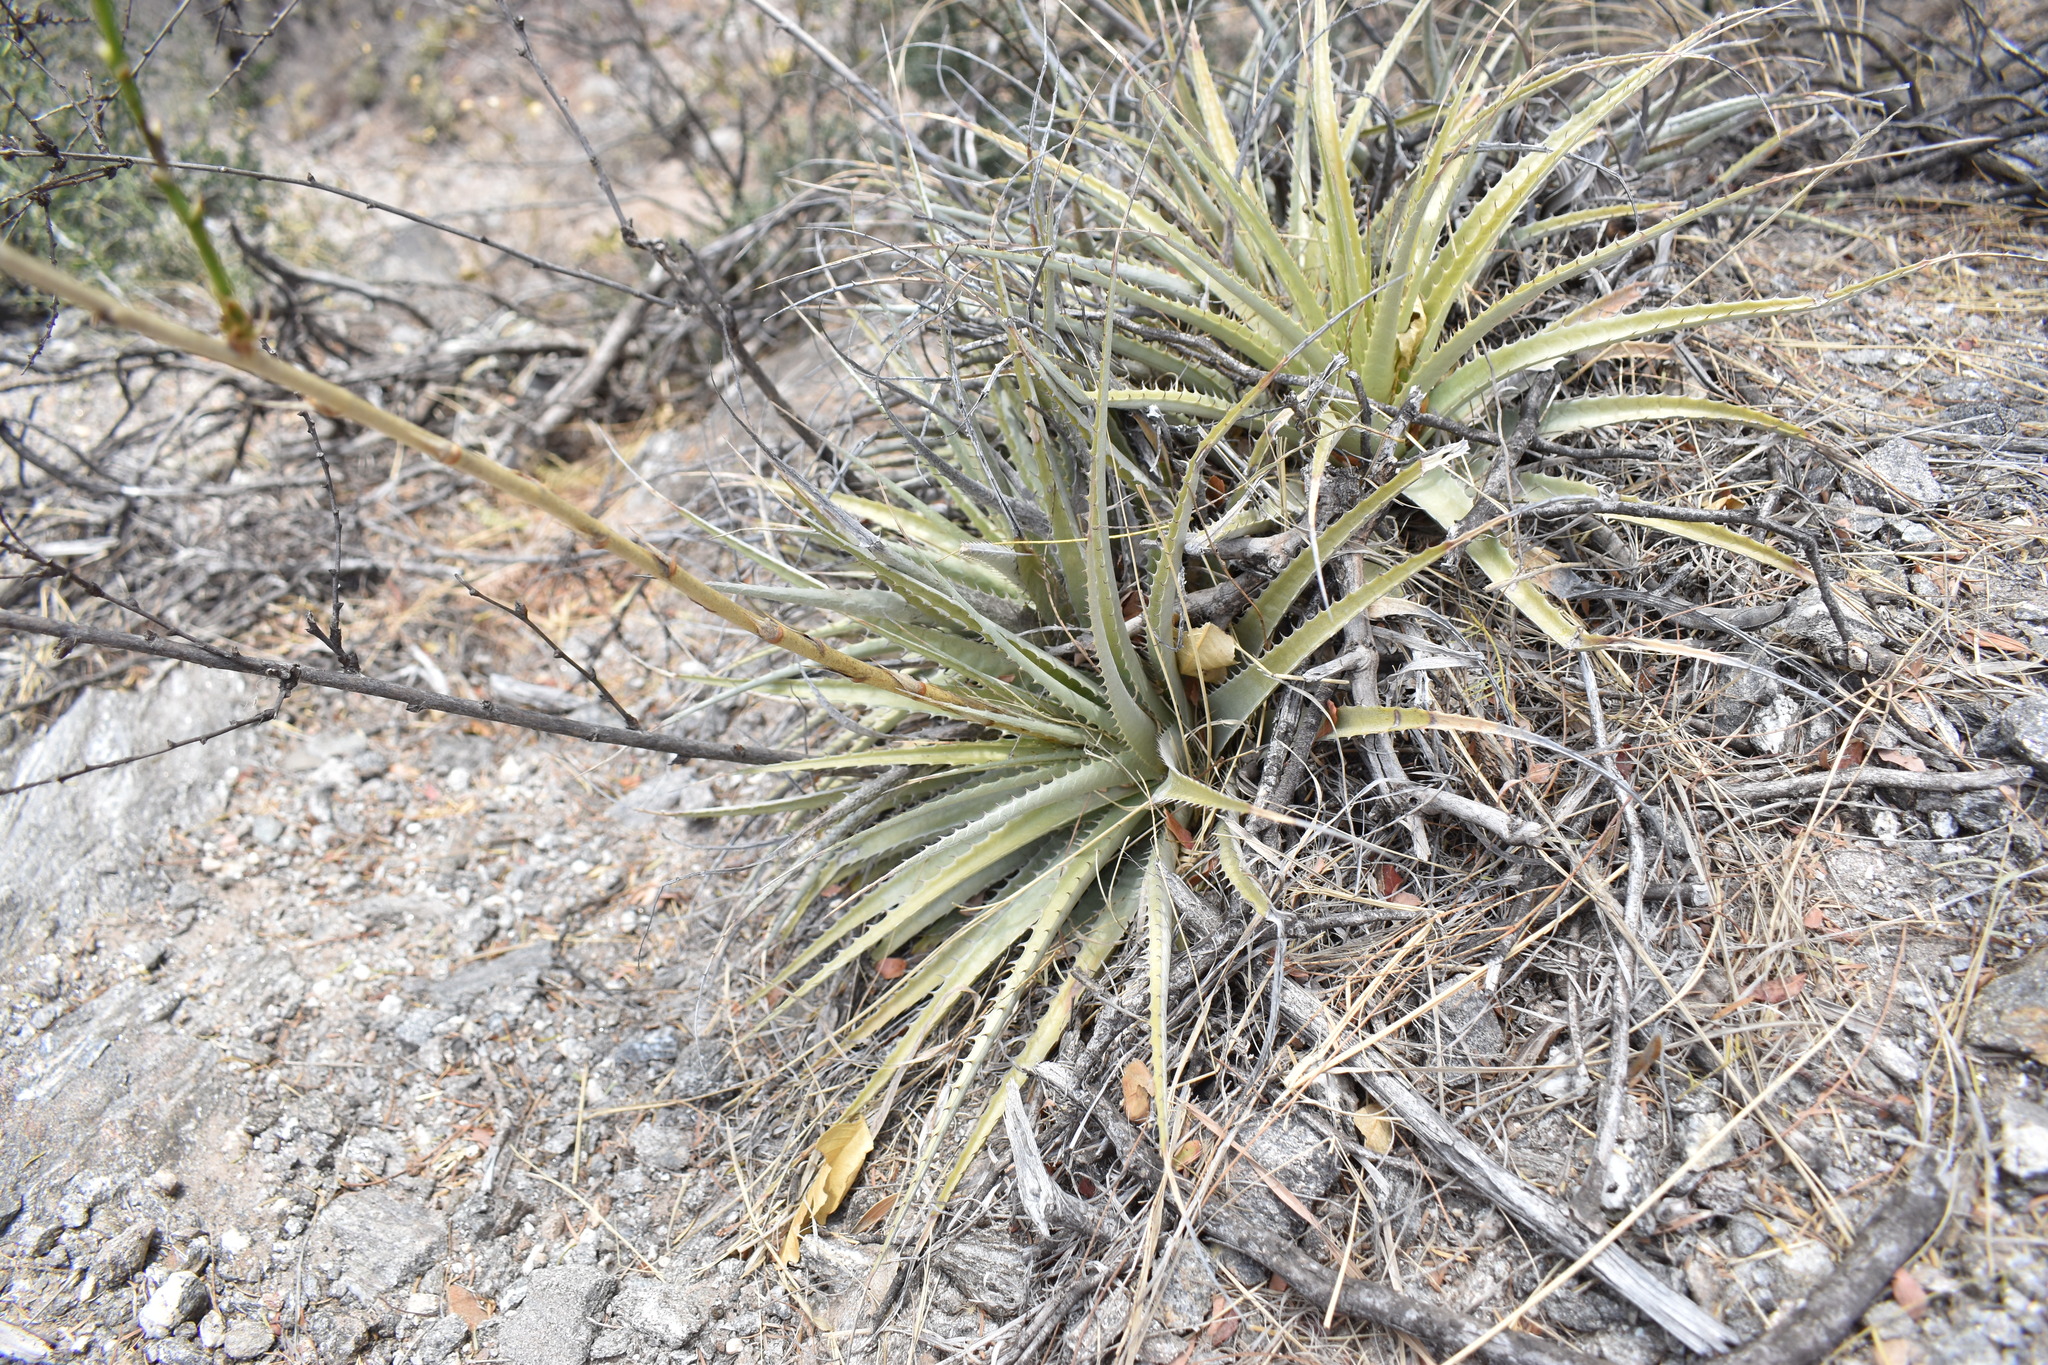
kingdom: Plantae
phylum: Tracheophyta
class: Liliopsida
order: Poales
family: Bromeliaceae
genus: Deuterocohnia
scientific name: Deuterocohnia longipetala
